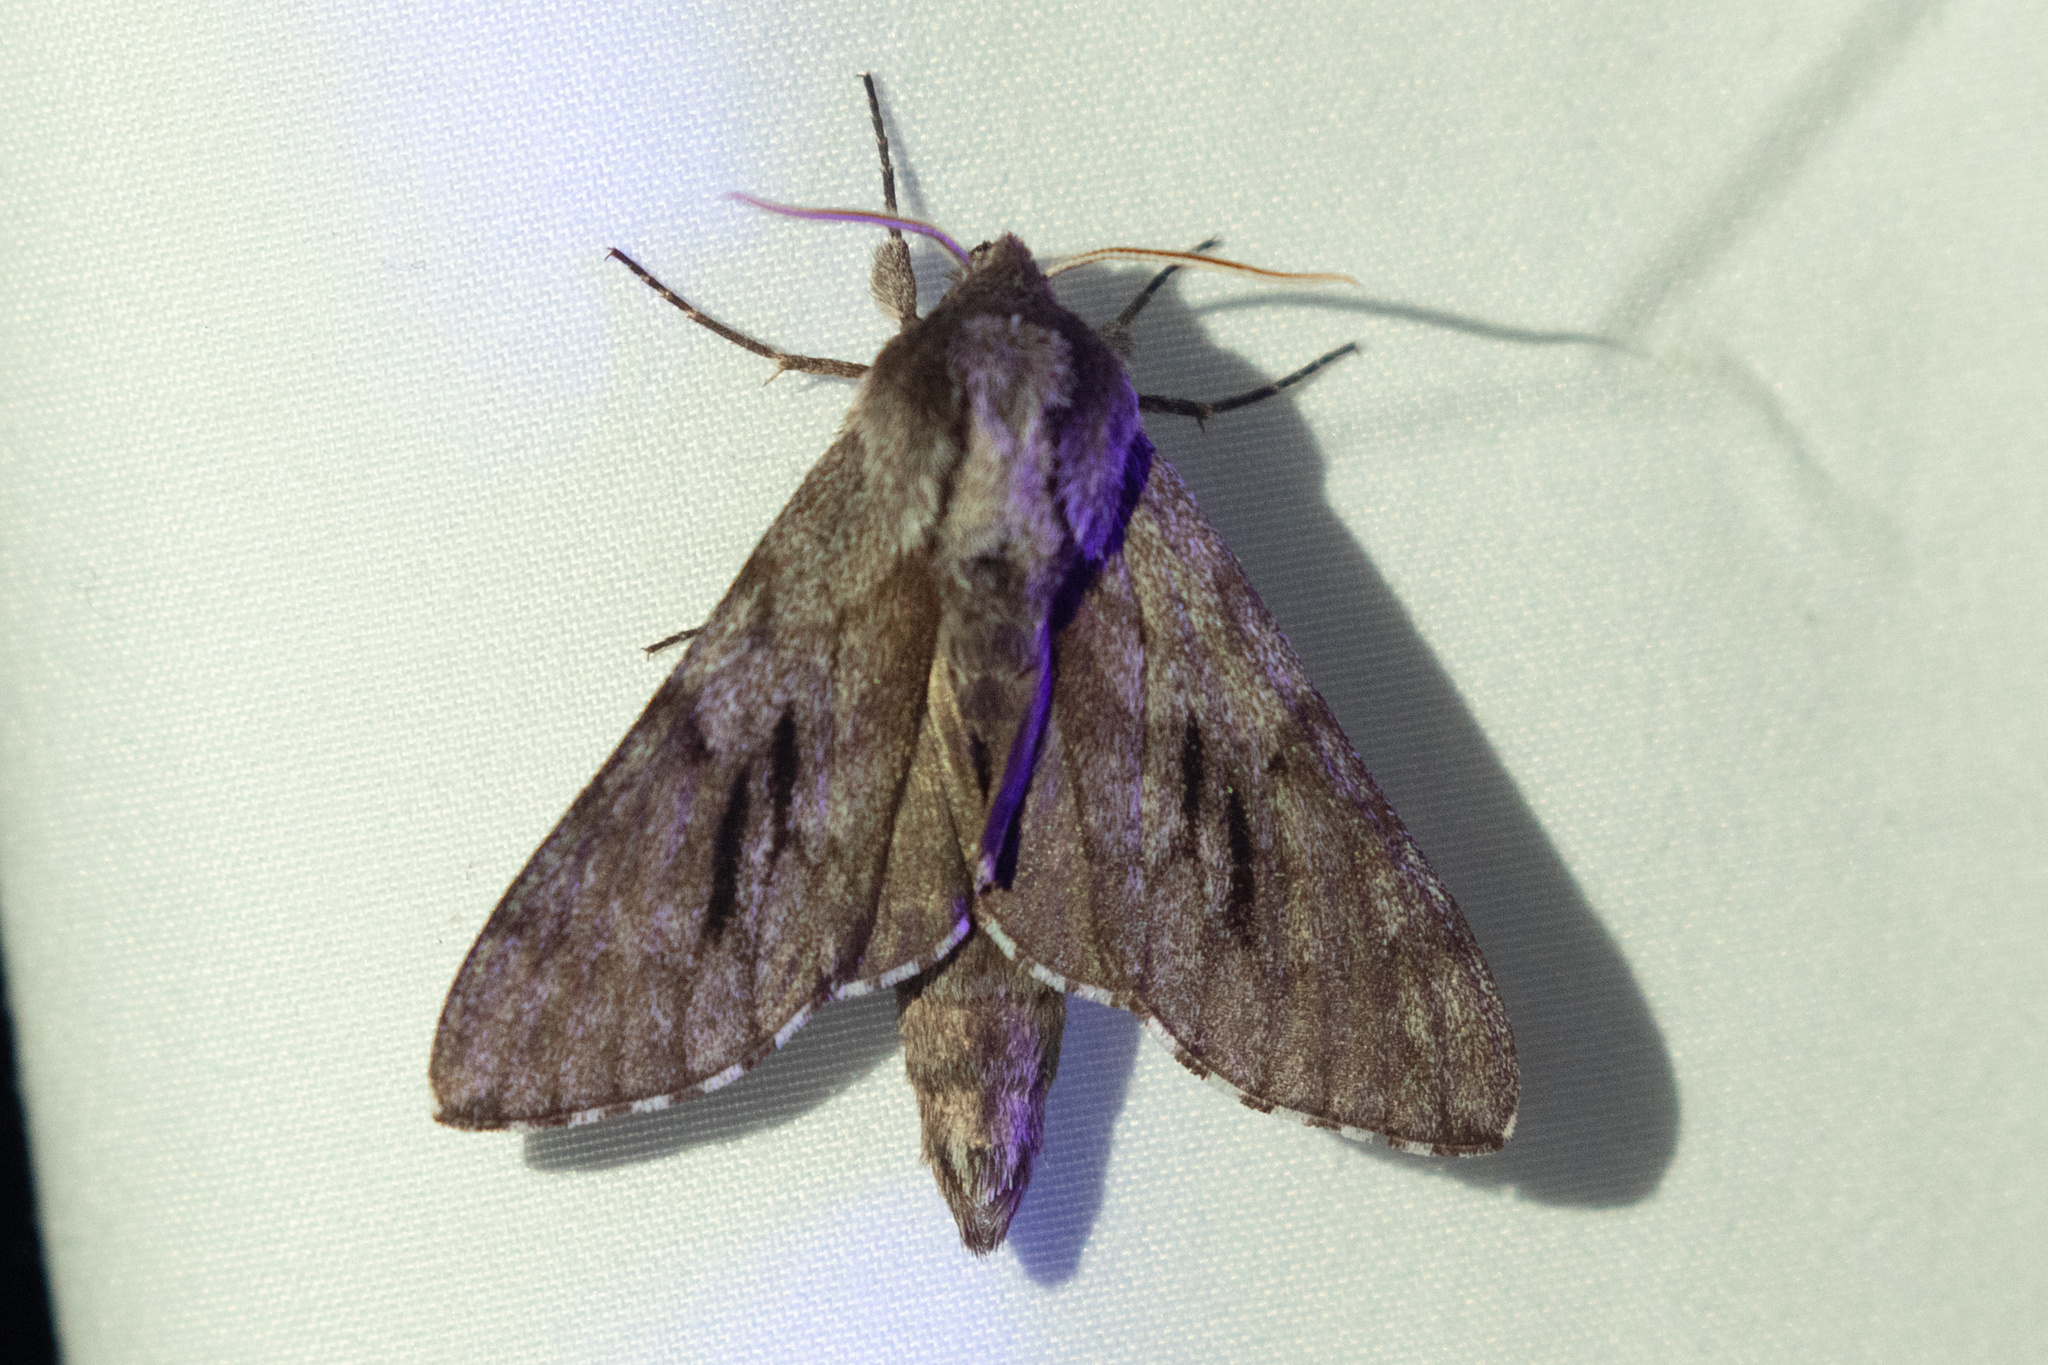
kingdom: Animalia
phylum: Arthropoda
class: Insecta
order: Lepidoptera
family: Sphingidae
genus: Lapara
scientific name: Lapara bombycoides
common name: Northern pine sphinx
